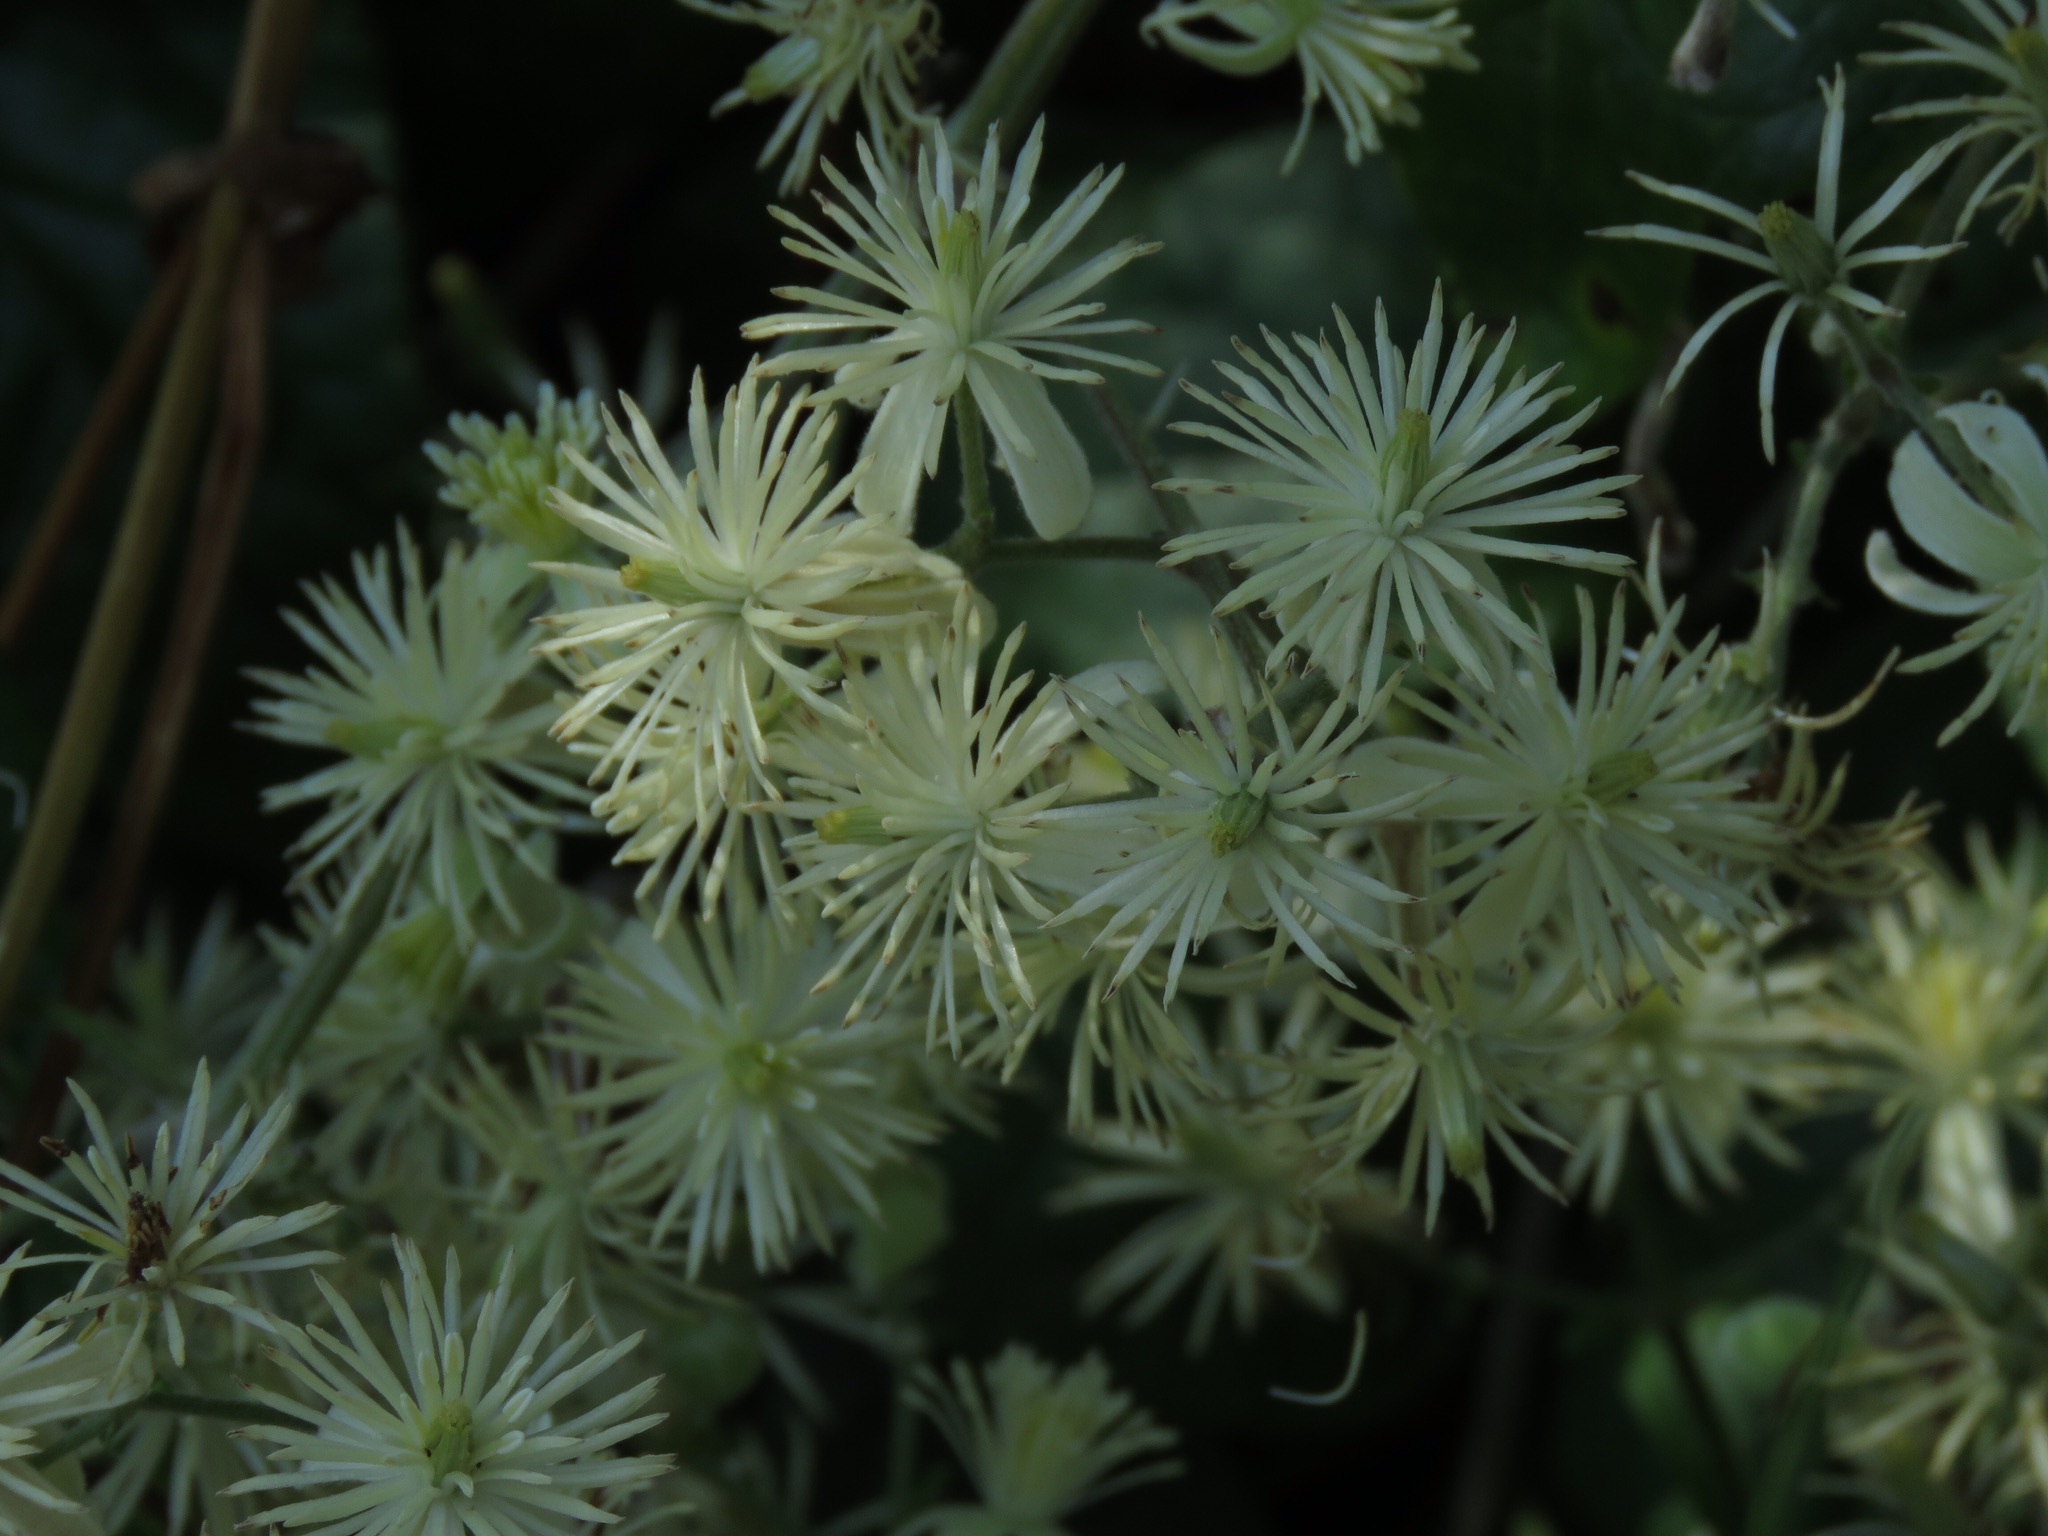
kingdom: Plantae
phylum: Tracheophyta
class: Magnoliopsida
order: Ranunculales
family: Ranunculaceae
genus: Clematis
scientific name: Clematis vitalba
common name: Evergreen clematis
